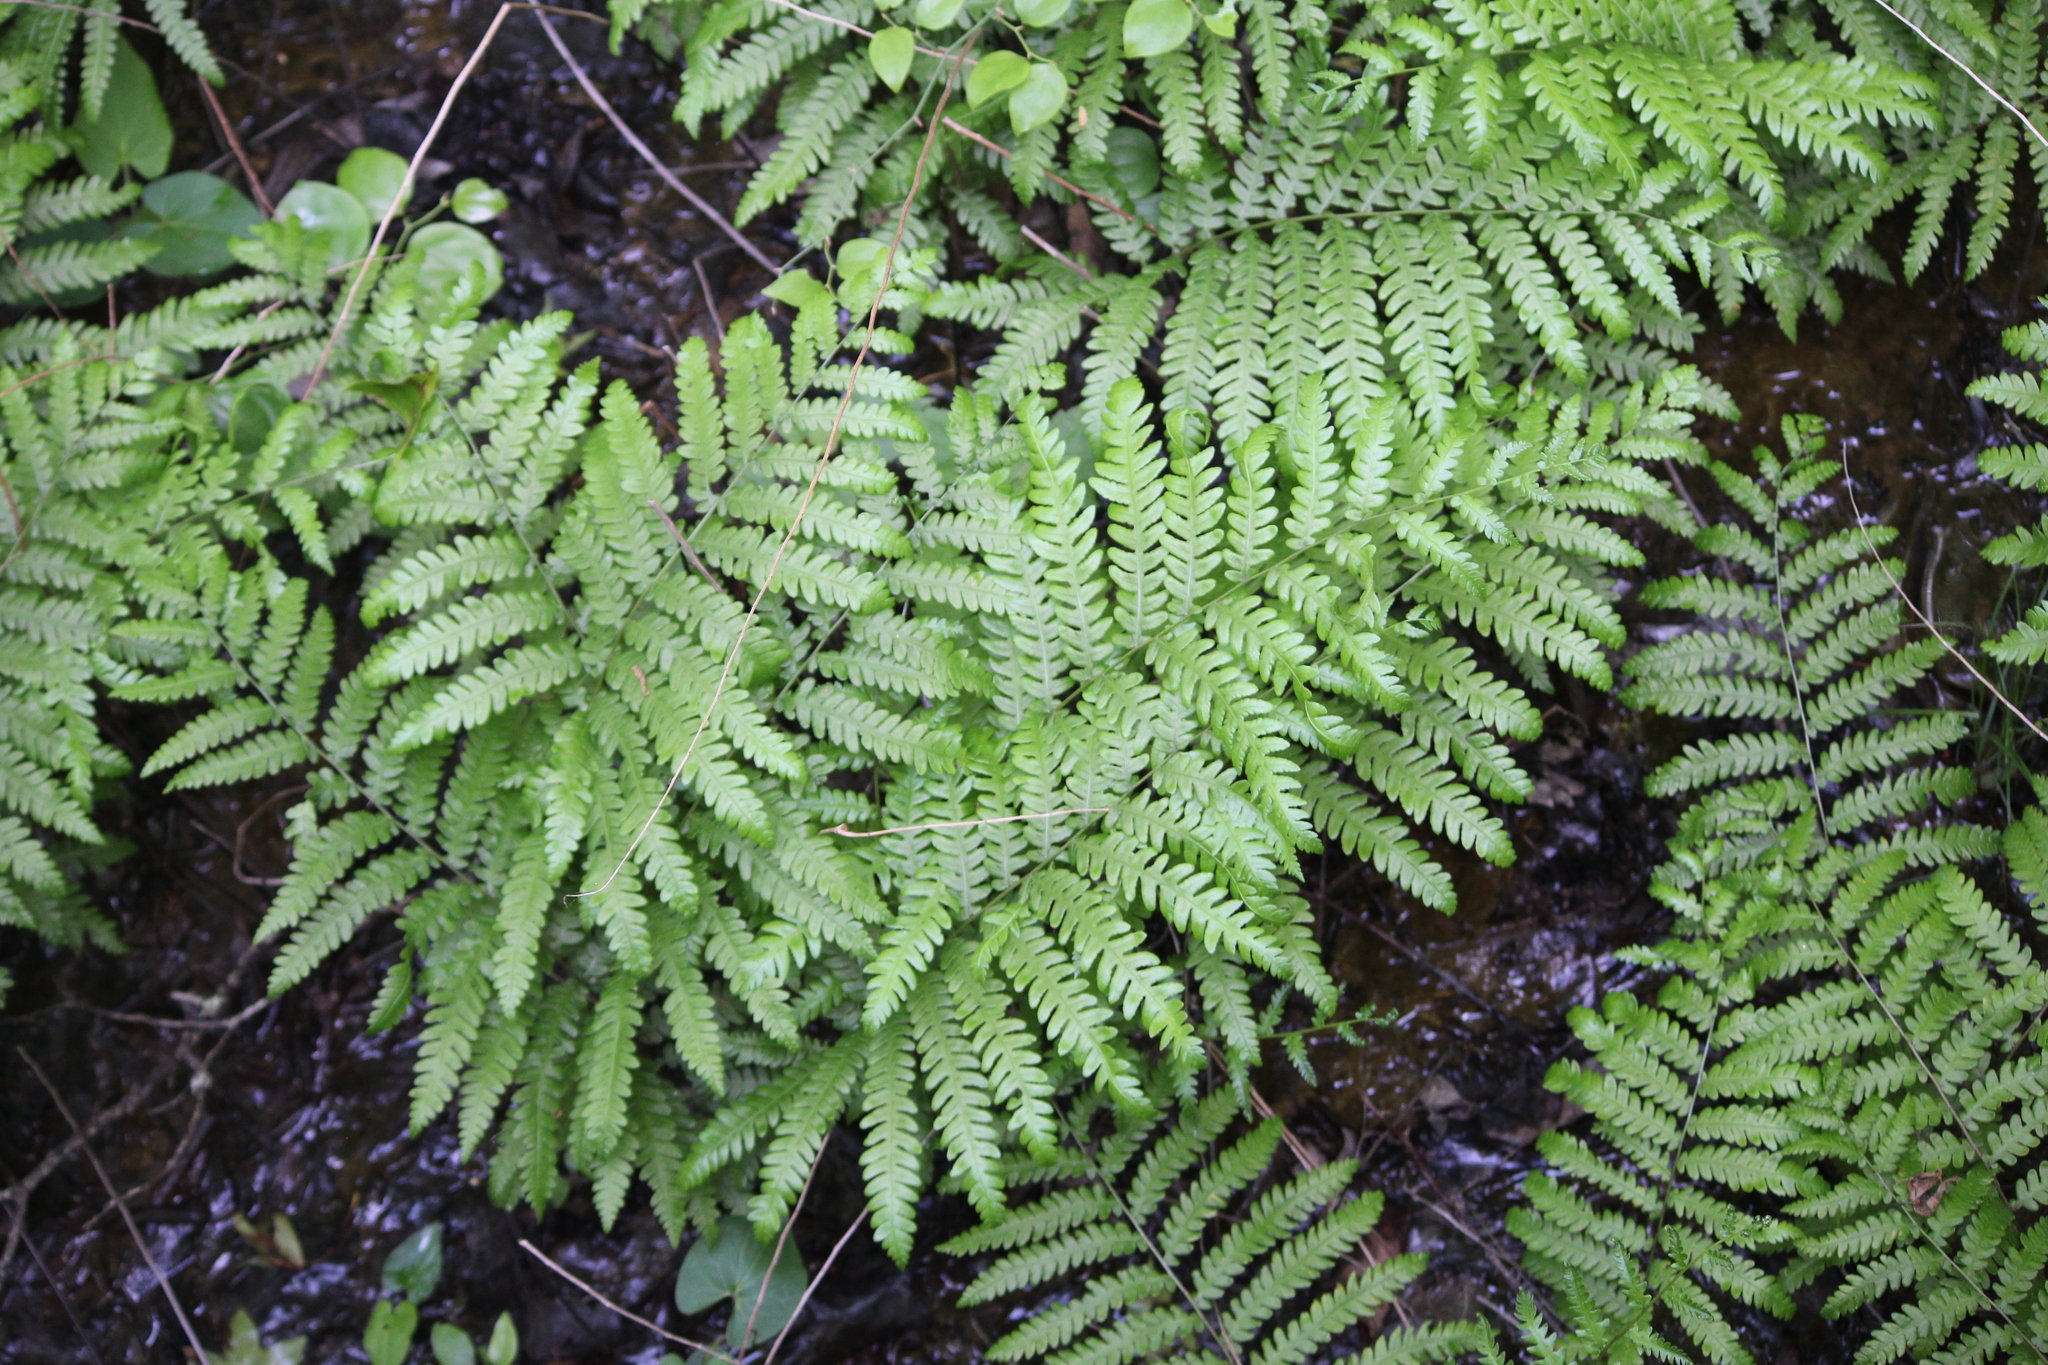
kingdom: Plantae
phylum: Tracheophyta
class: Polypodiopsida
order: Polypodiales
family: Blechnaceae
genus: Anchistea
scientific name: Anchistea virginica
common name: Virginia chain fern
